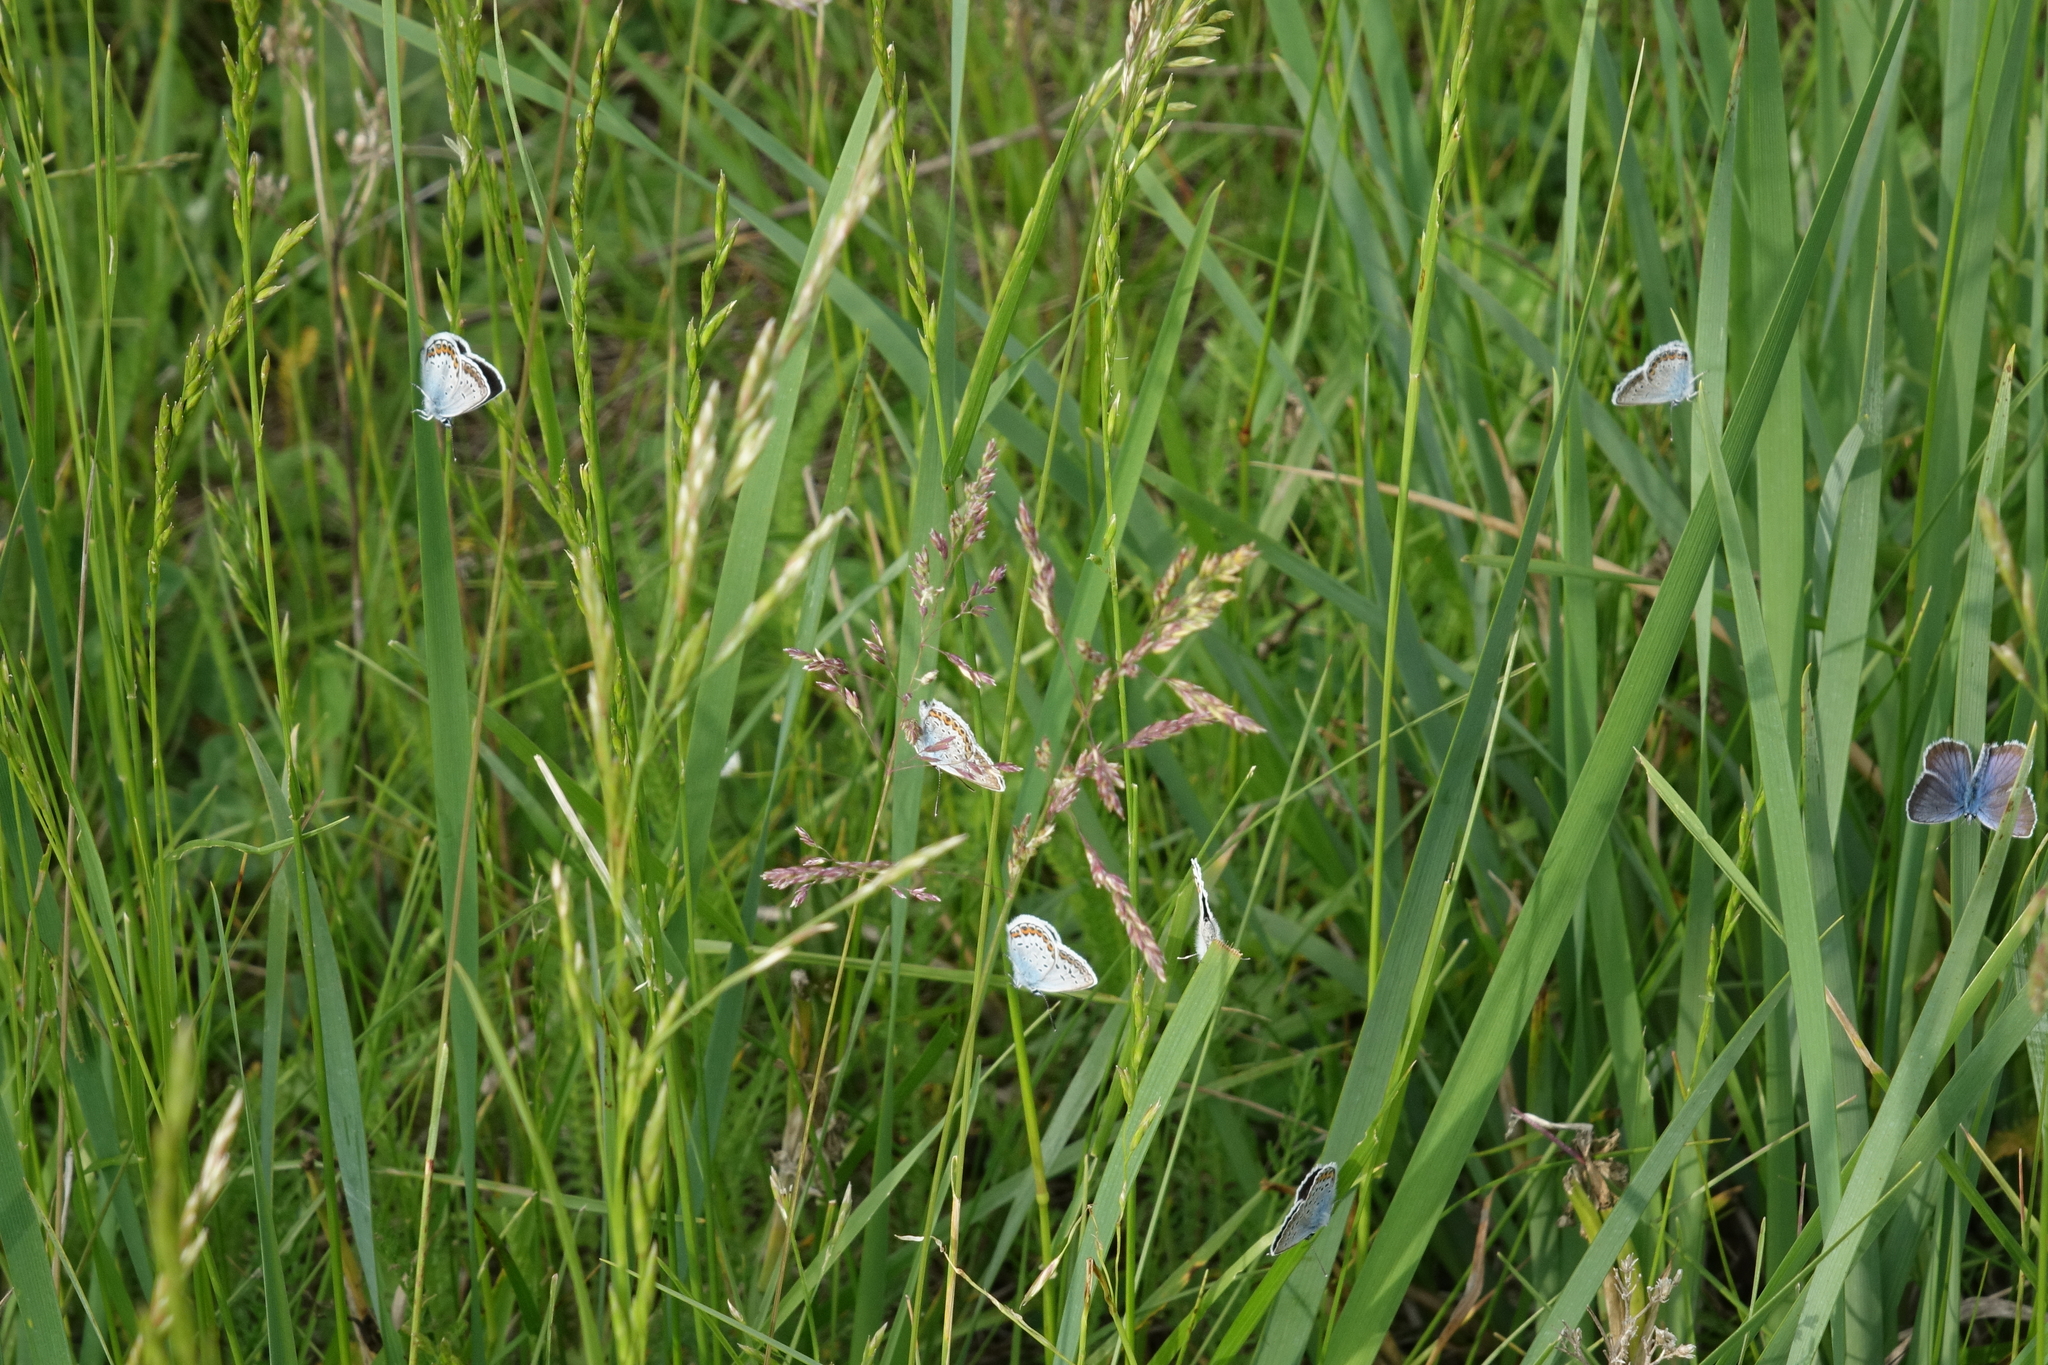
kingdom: Animalia
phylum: Arthropoda
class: Insecta
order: Lepidoptera
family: Lycaenidae
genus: Plebejus
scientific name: Plebejus argus
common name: Silver-studded blue
